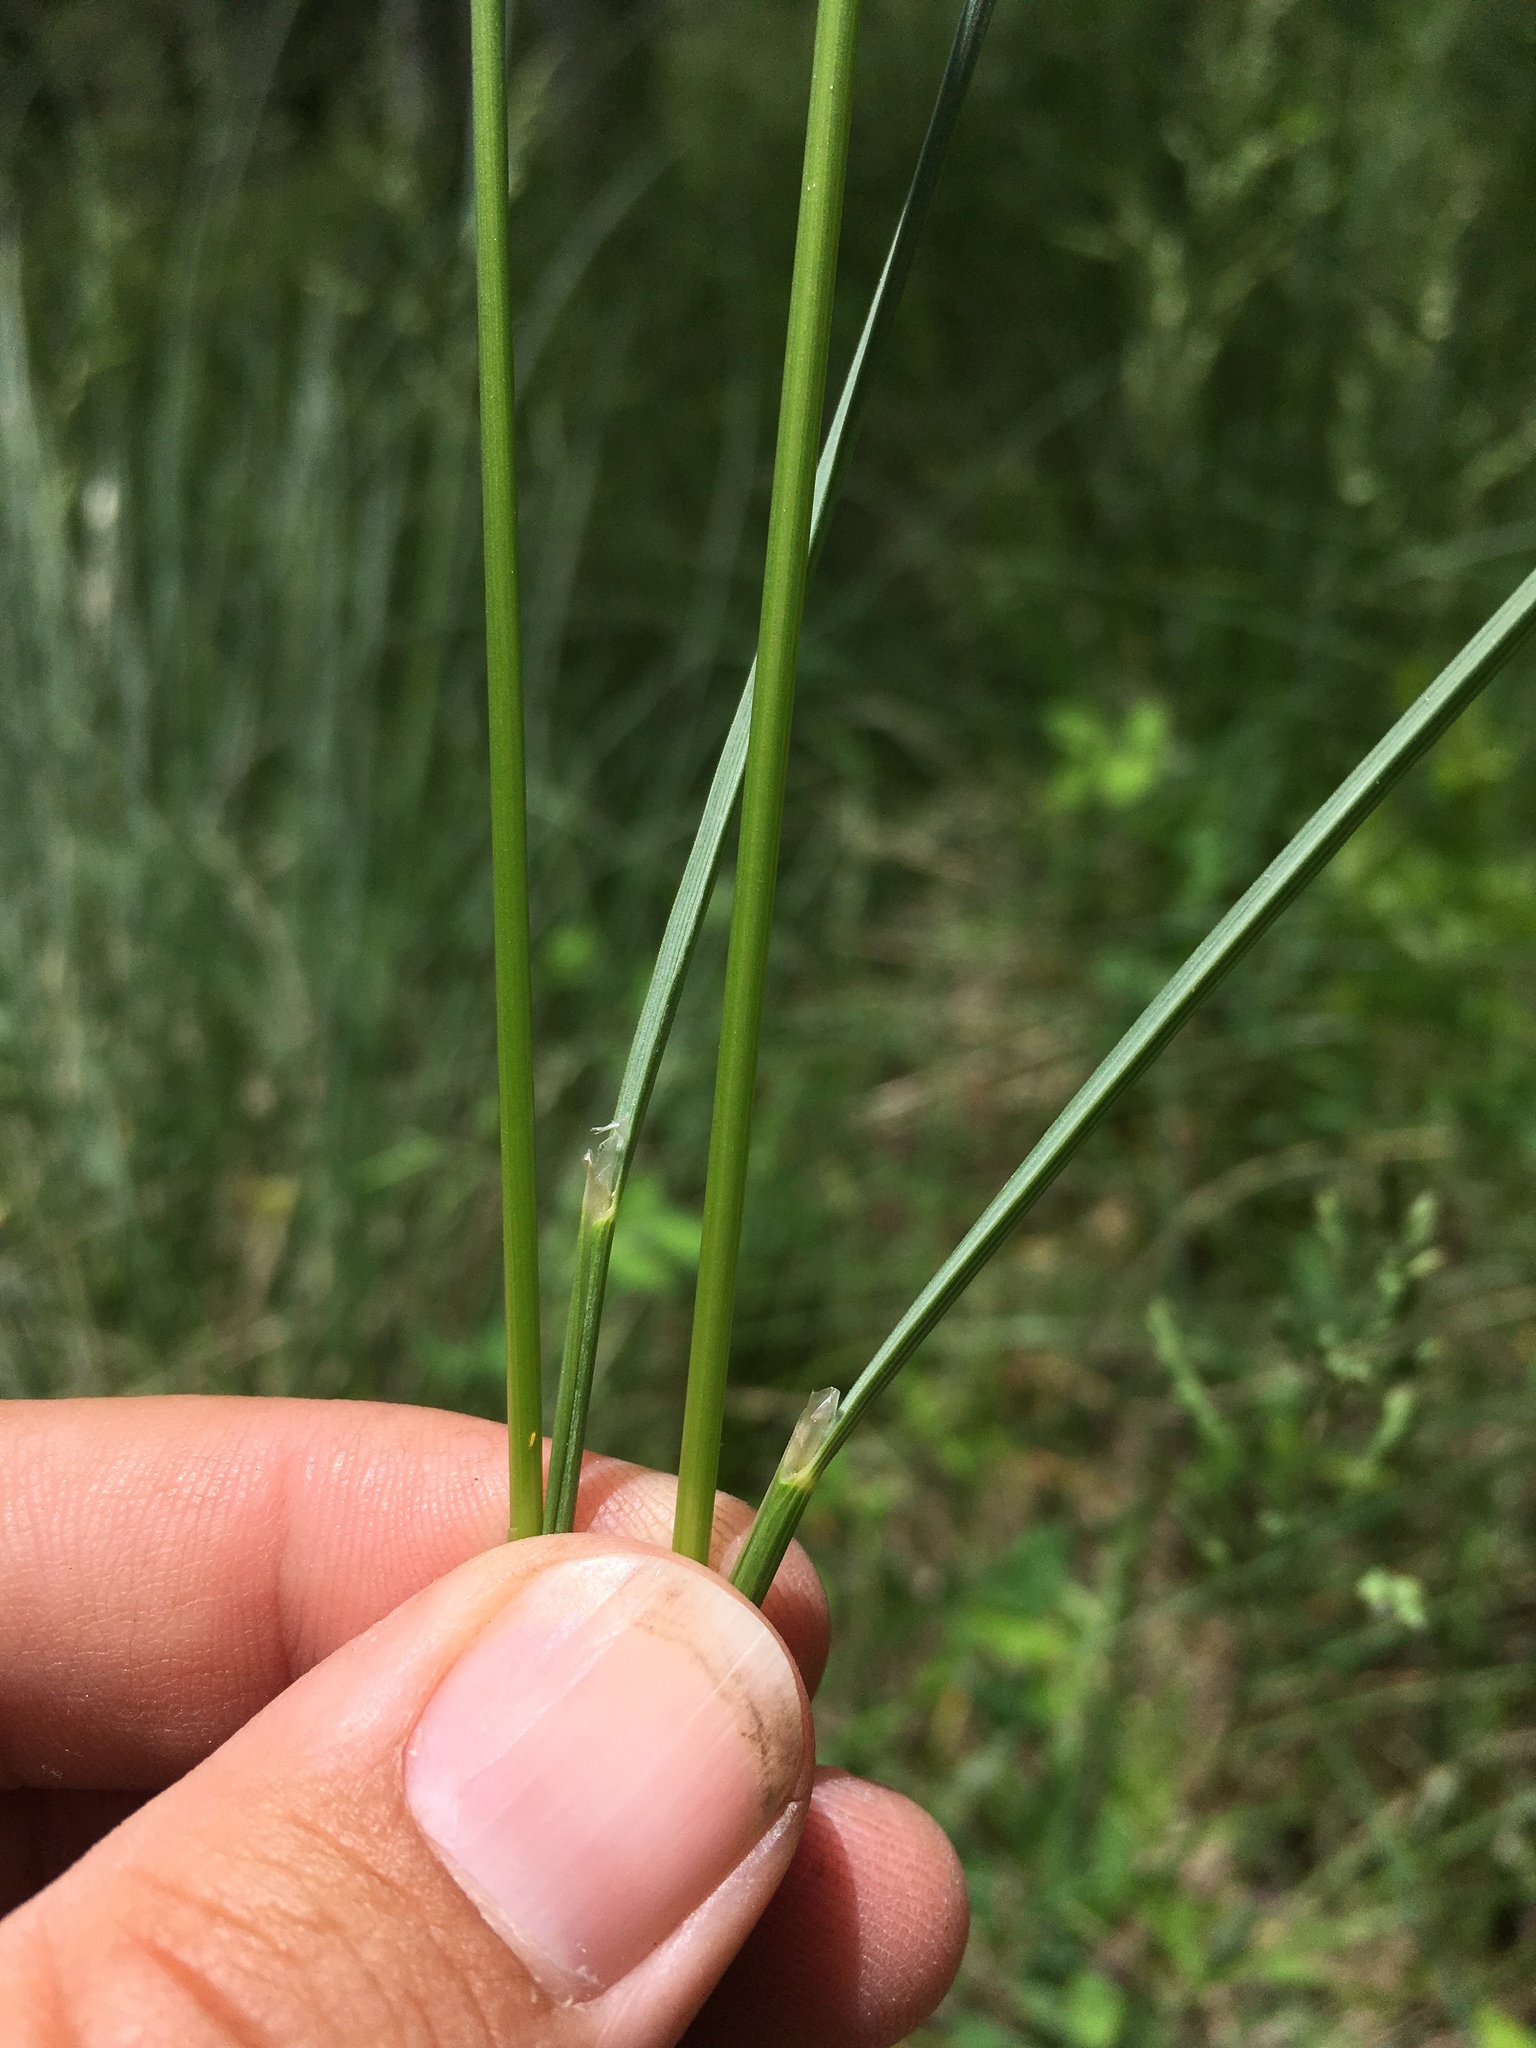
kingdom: Plantae
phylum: Tracheophyta
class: Liliopsida
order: Poales
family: Poaceae
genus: Festuca
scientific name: Festuca thurberi
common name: Thurber's fescue
